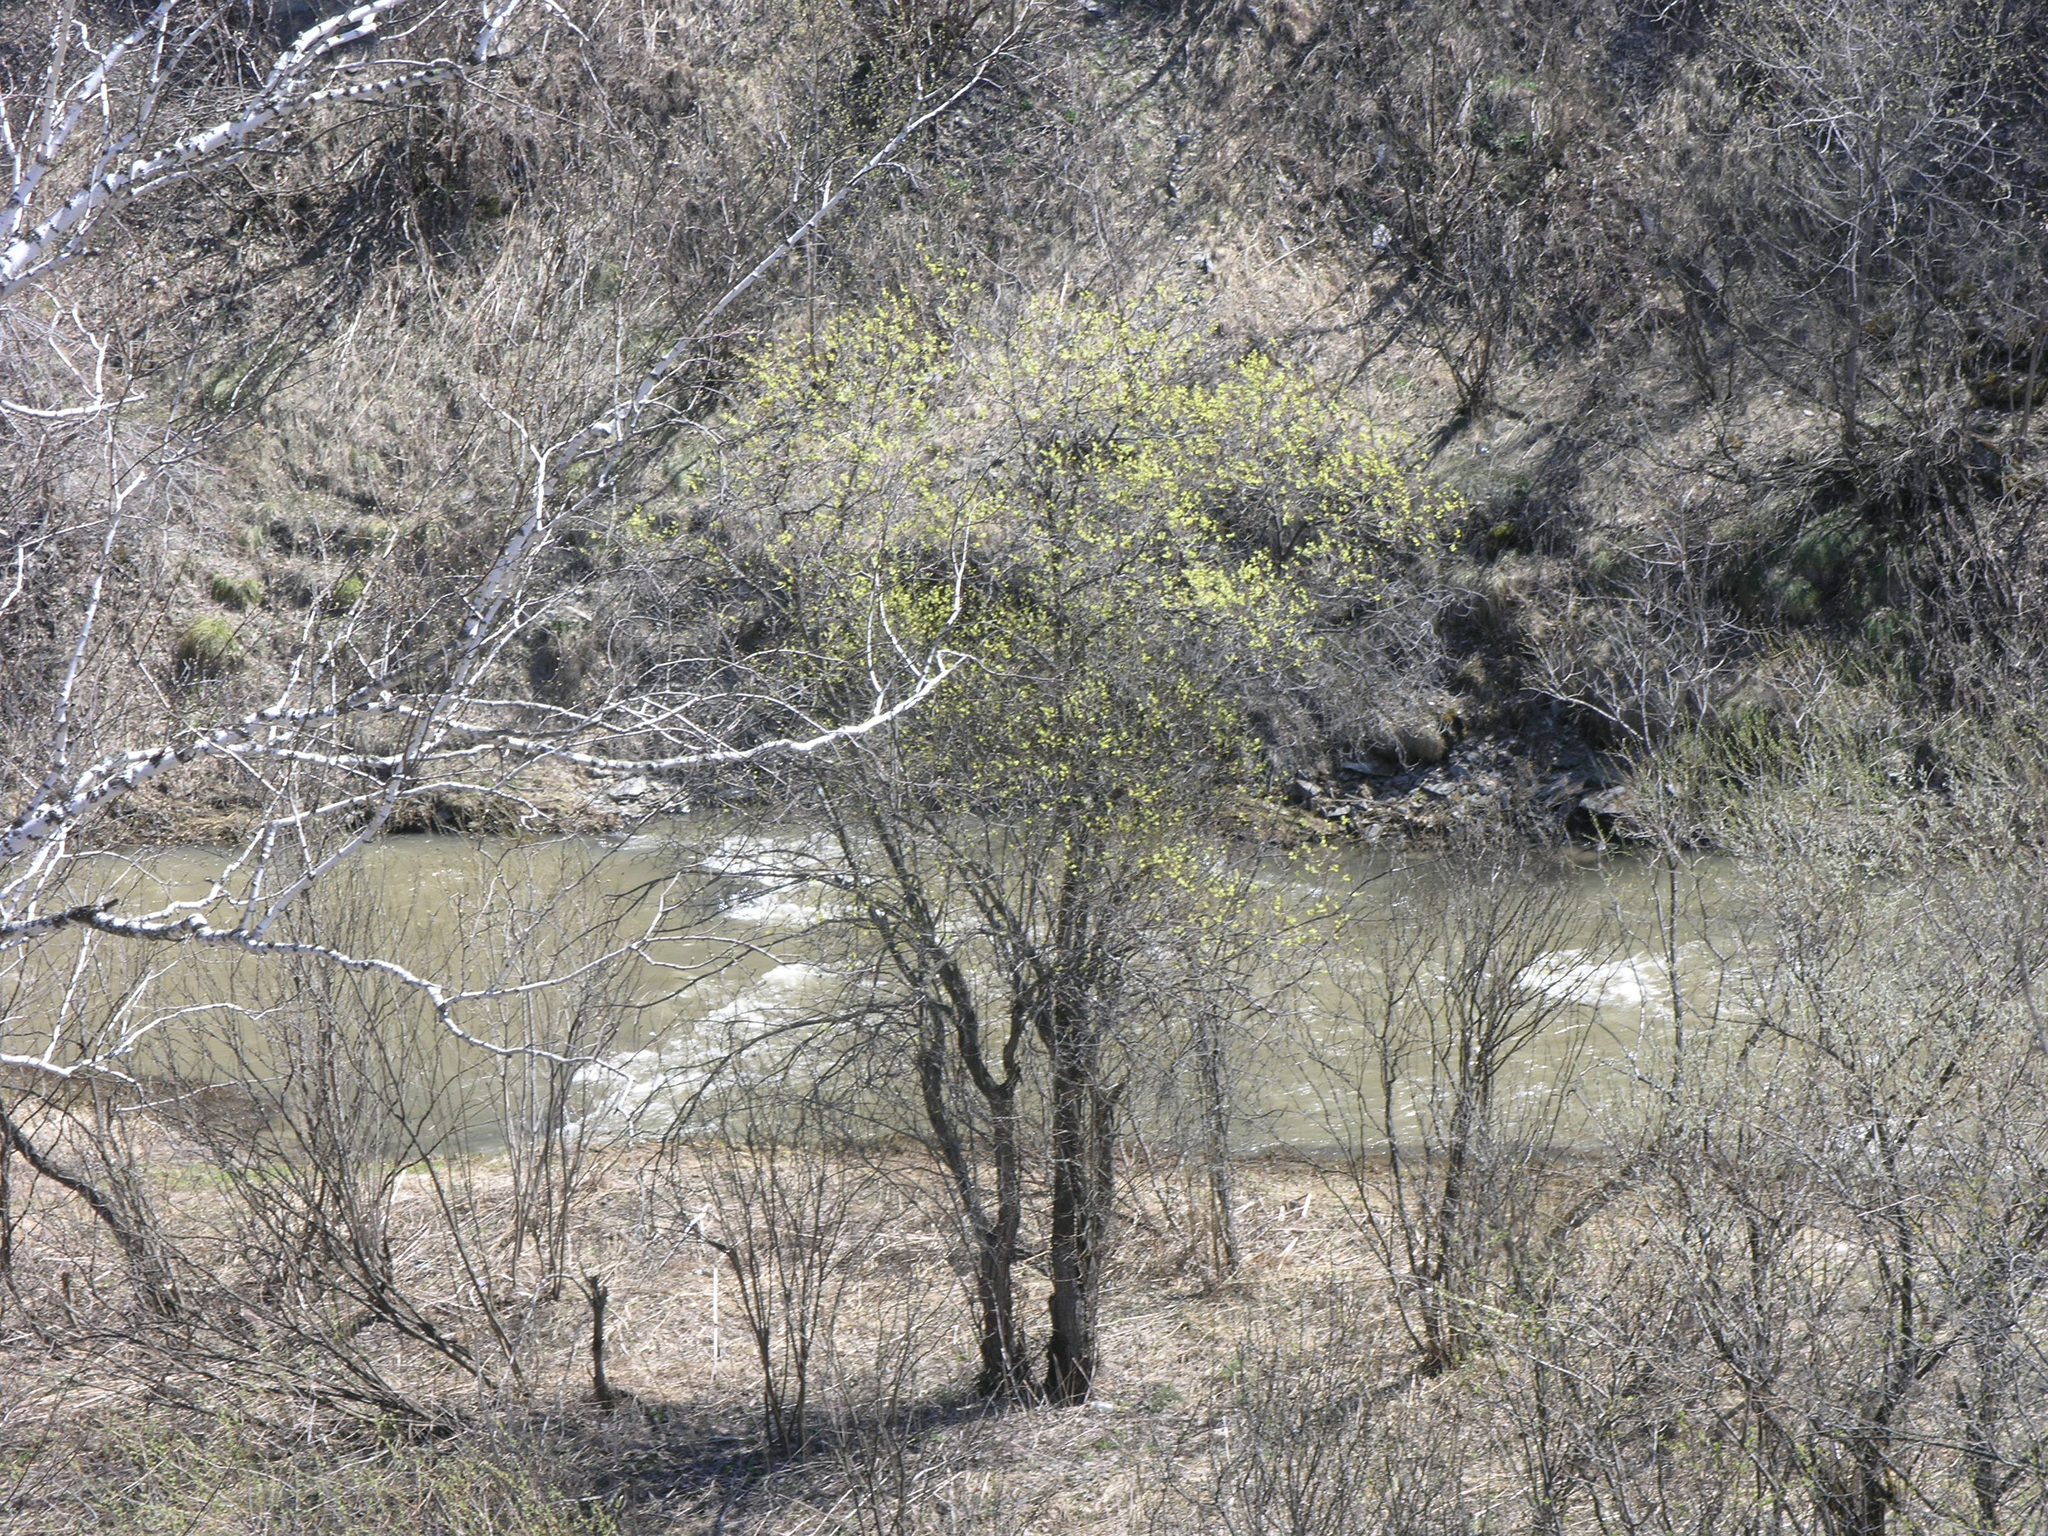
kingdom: Plantae
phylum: Tracheophyta
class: Magnoliopsida
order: Malpighiales
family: Salicaceae
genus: Salix
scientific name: Salix caprea
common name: Goat willow
